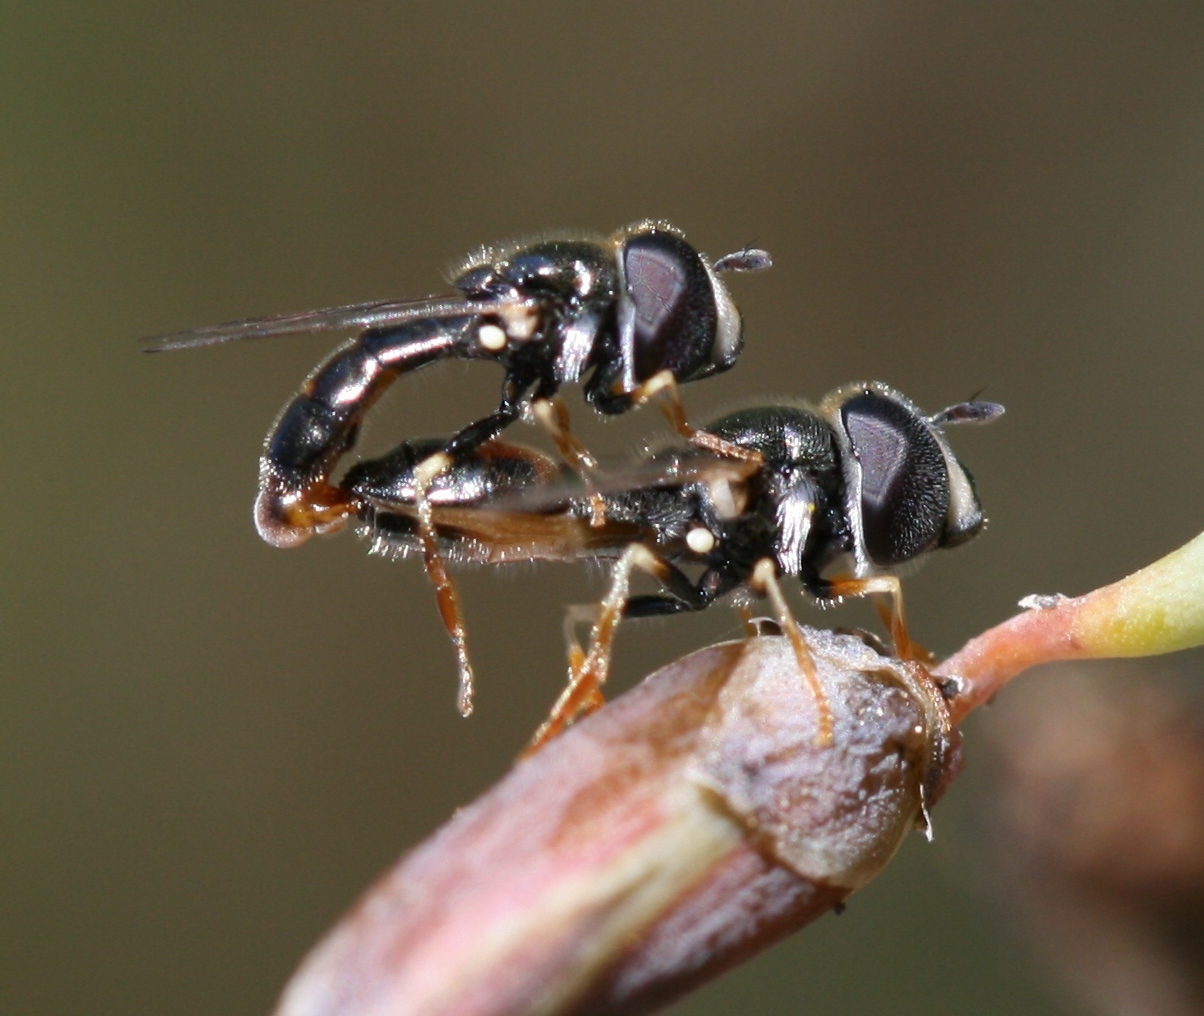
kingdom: Animalia
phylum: Arthropoda
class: Insecta
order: Diptera
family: Syrphidae
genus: Paragus
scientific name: Paragus tibialis
